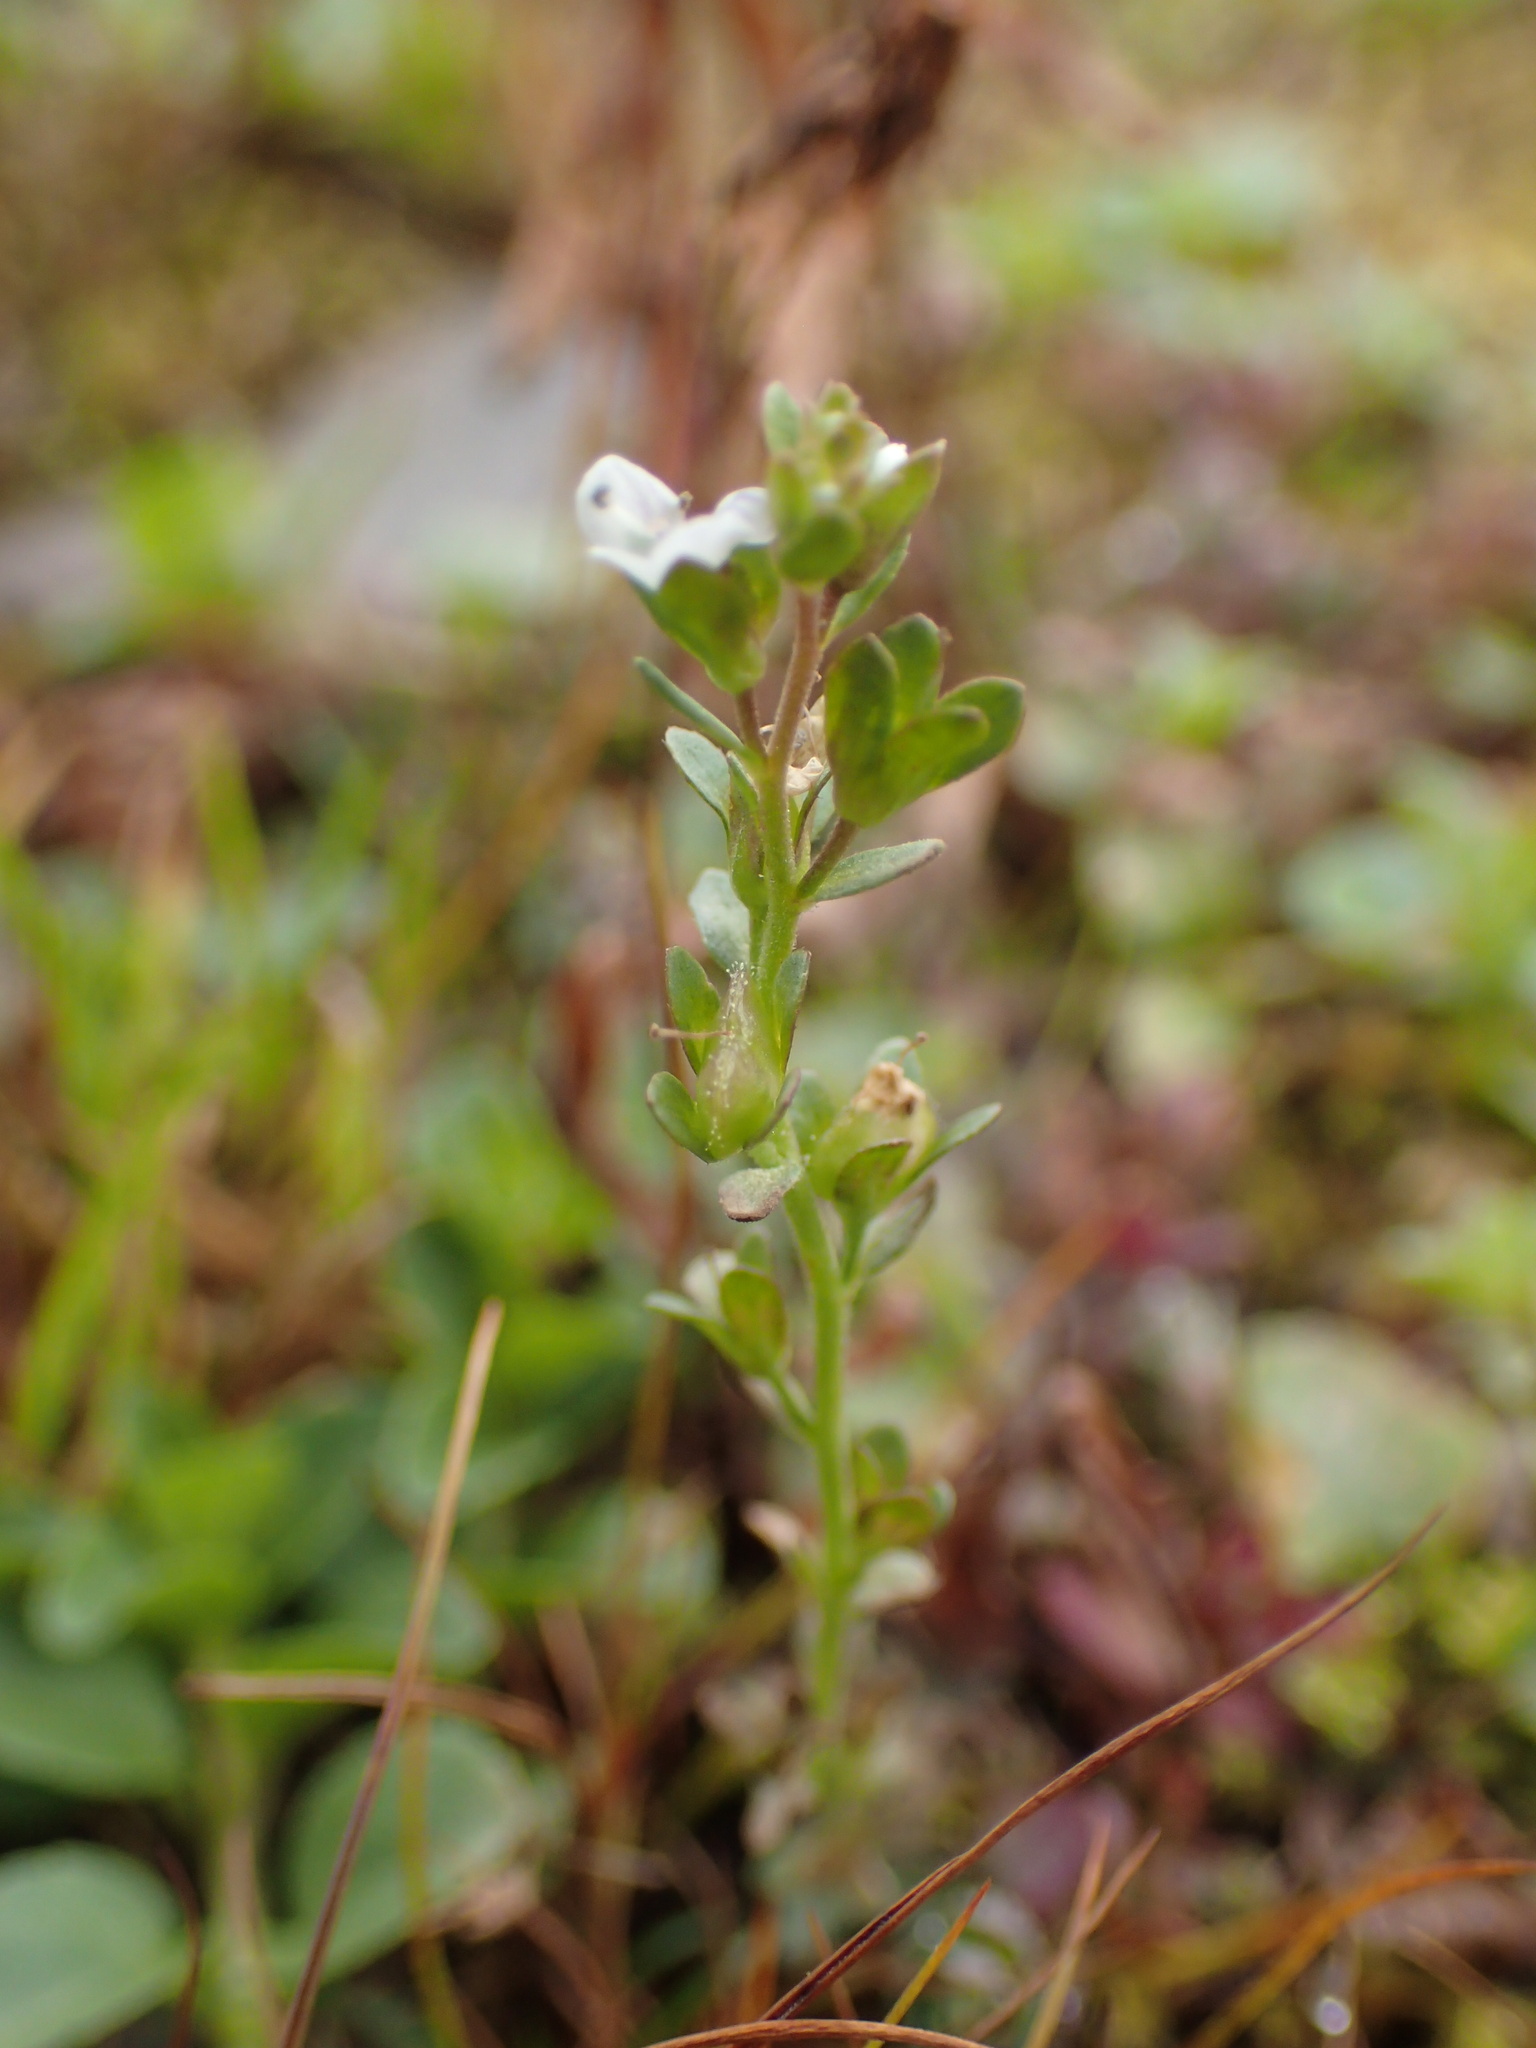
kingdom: Plantae
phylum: Tracheophyta
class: Magnoliopsida
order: Lamiales
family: Plantaginaceae
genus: Veronica
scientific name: Veronica serpyllifolia
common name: Thyme-leaved speedwell
